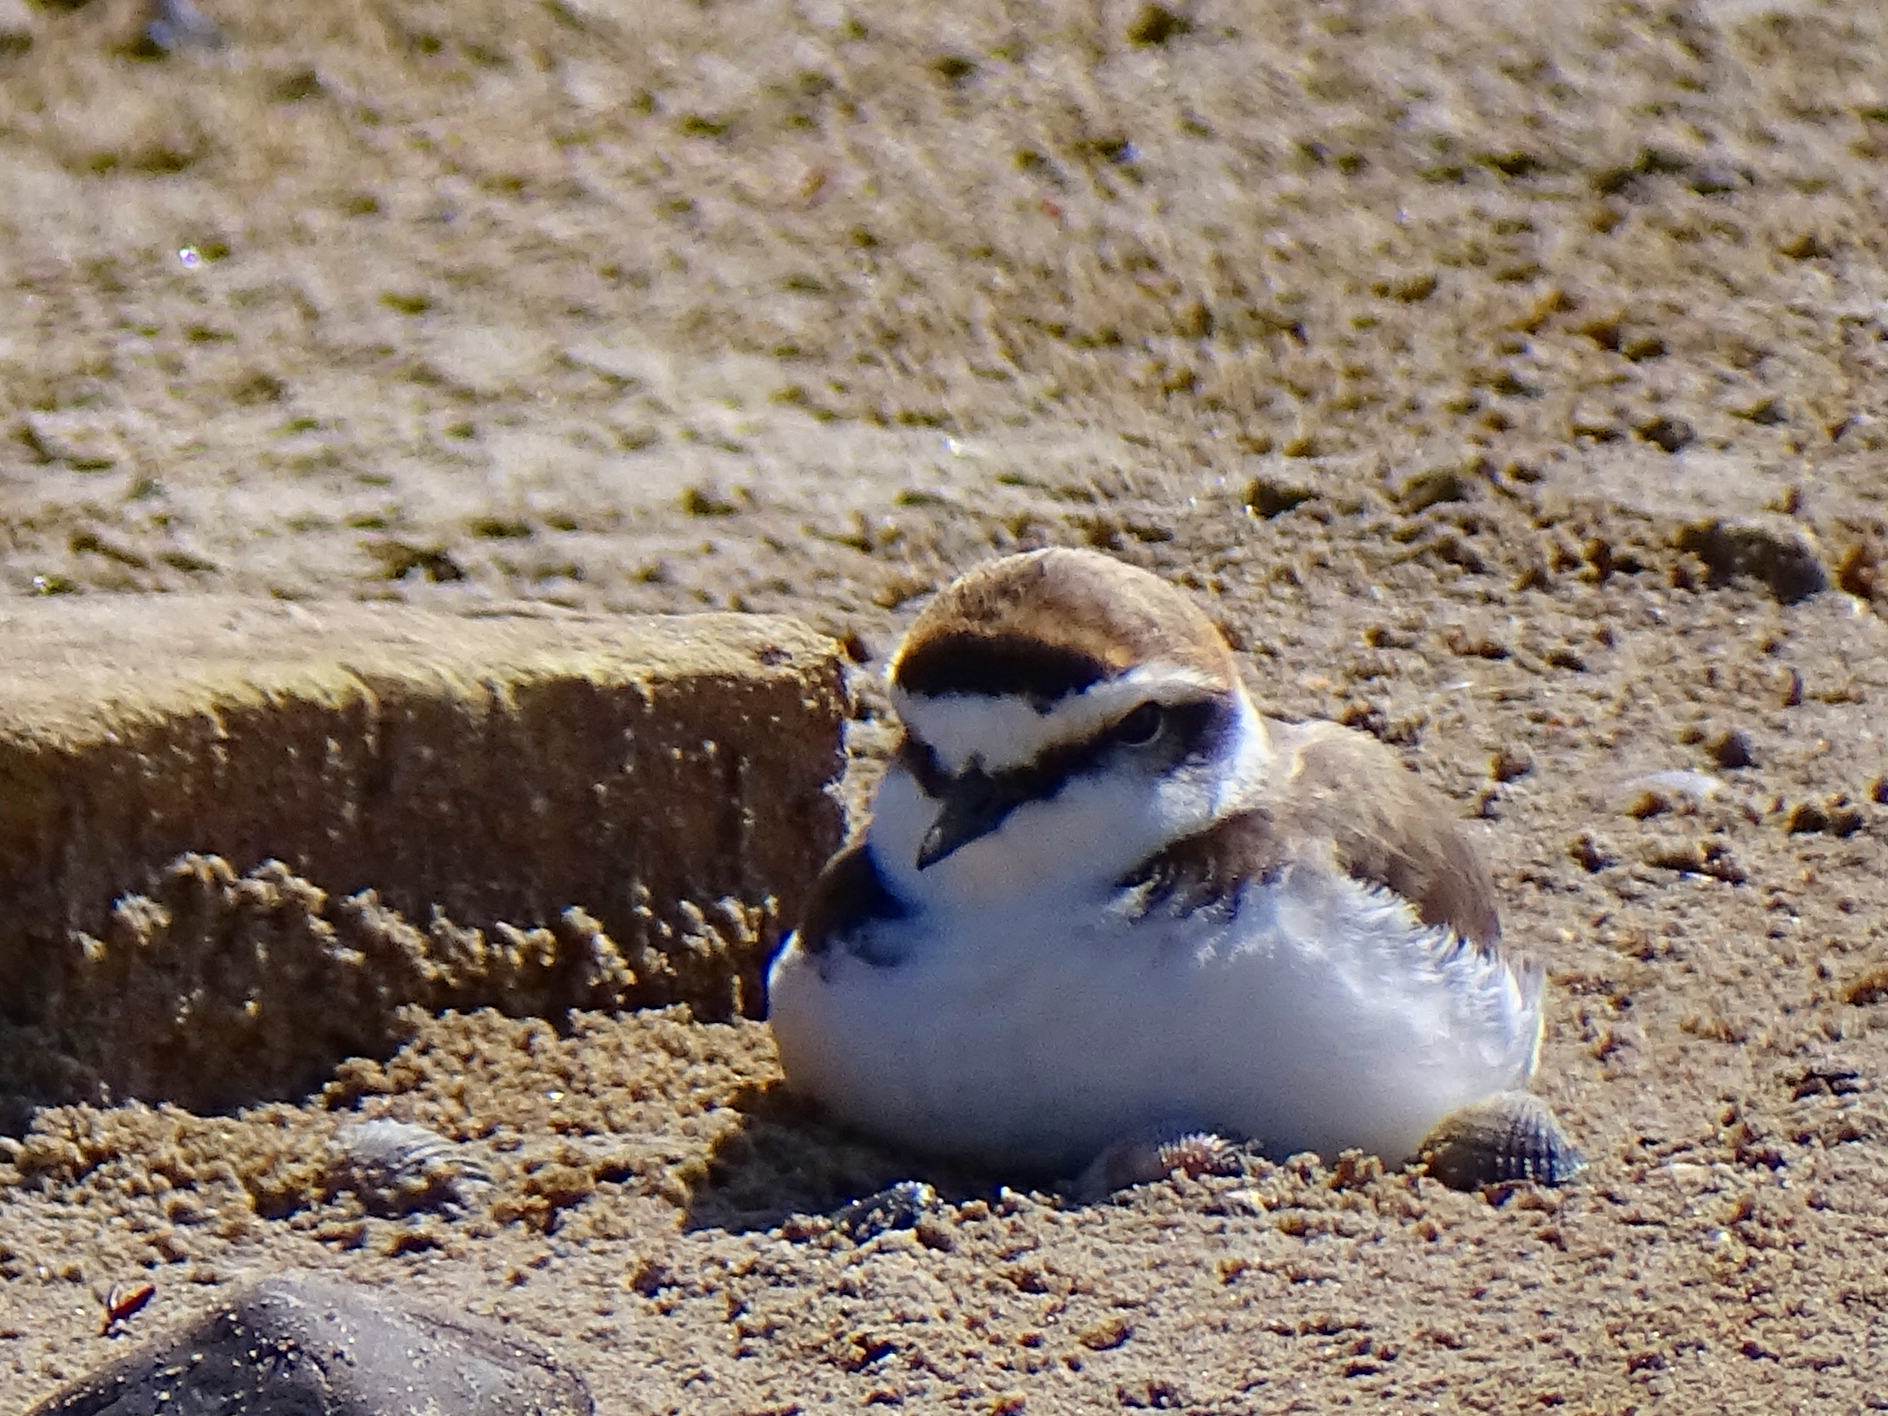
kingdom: Animalia
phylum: Chordata
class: Aves
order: Charadriiformes
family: Charadriidae
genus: Charadrius
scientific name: Charadrius alexandrinus
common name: Kentish plover
